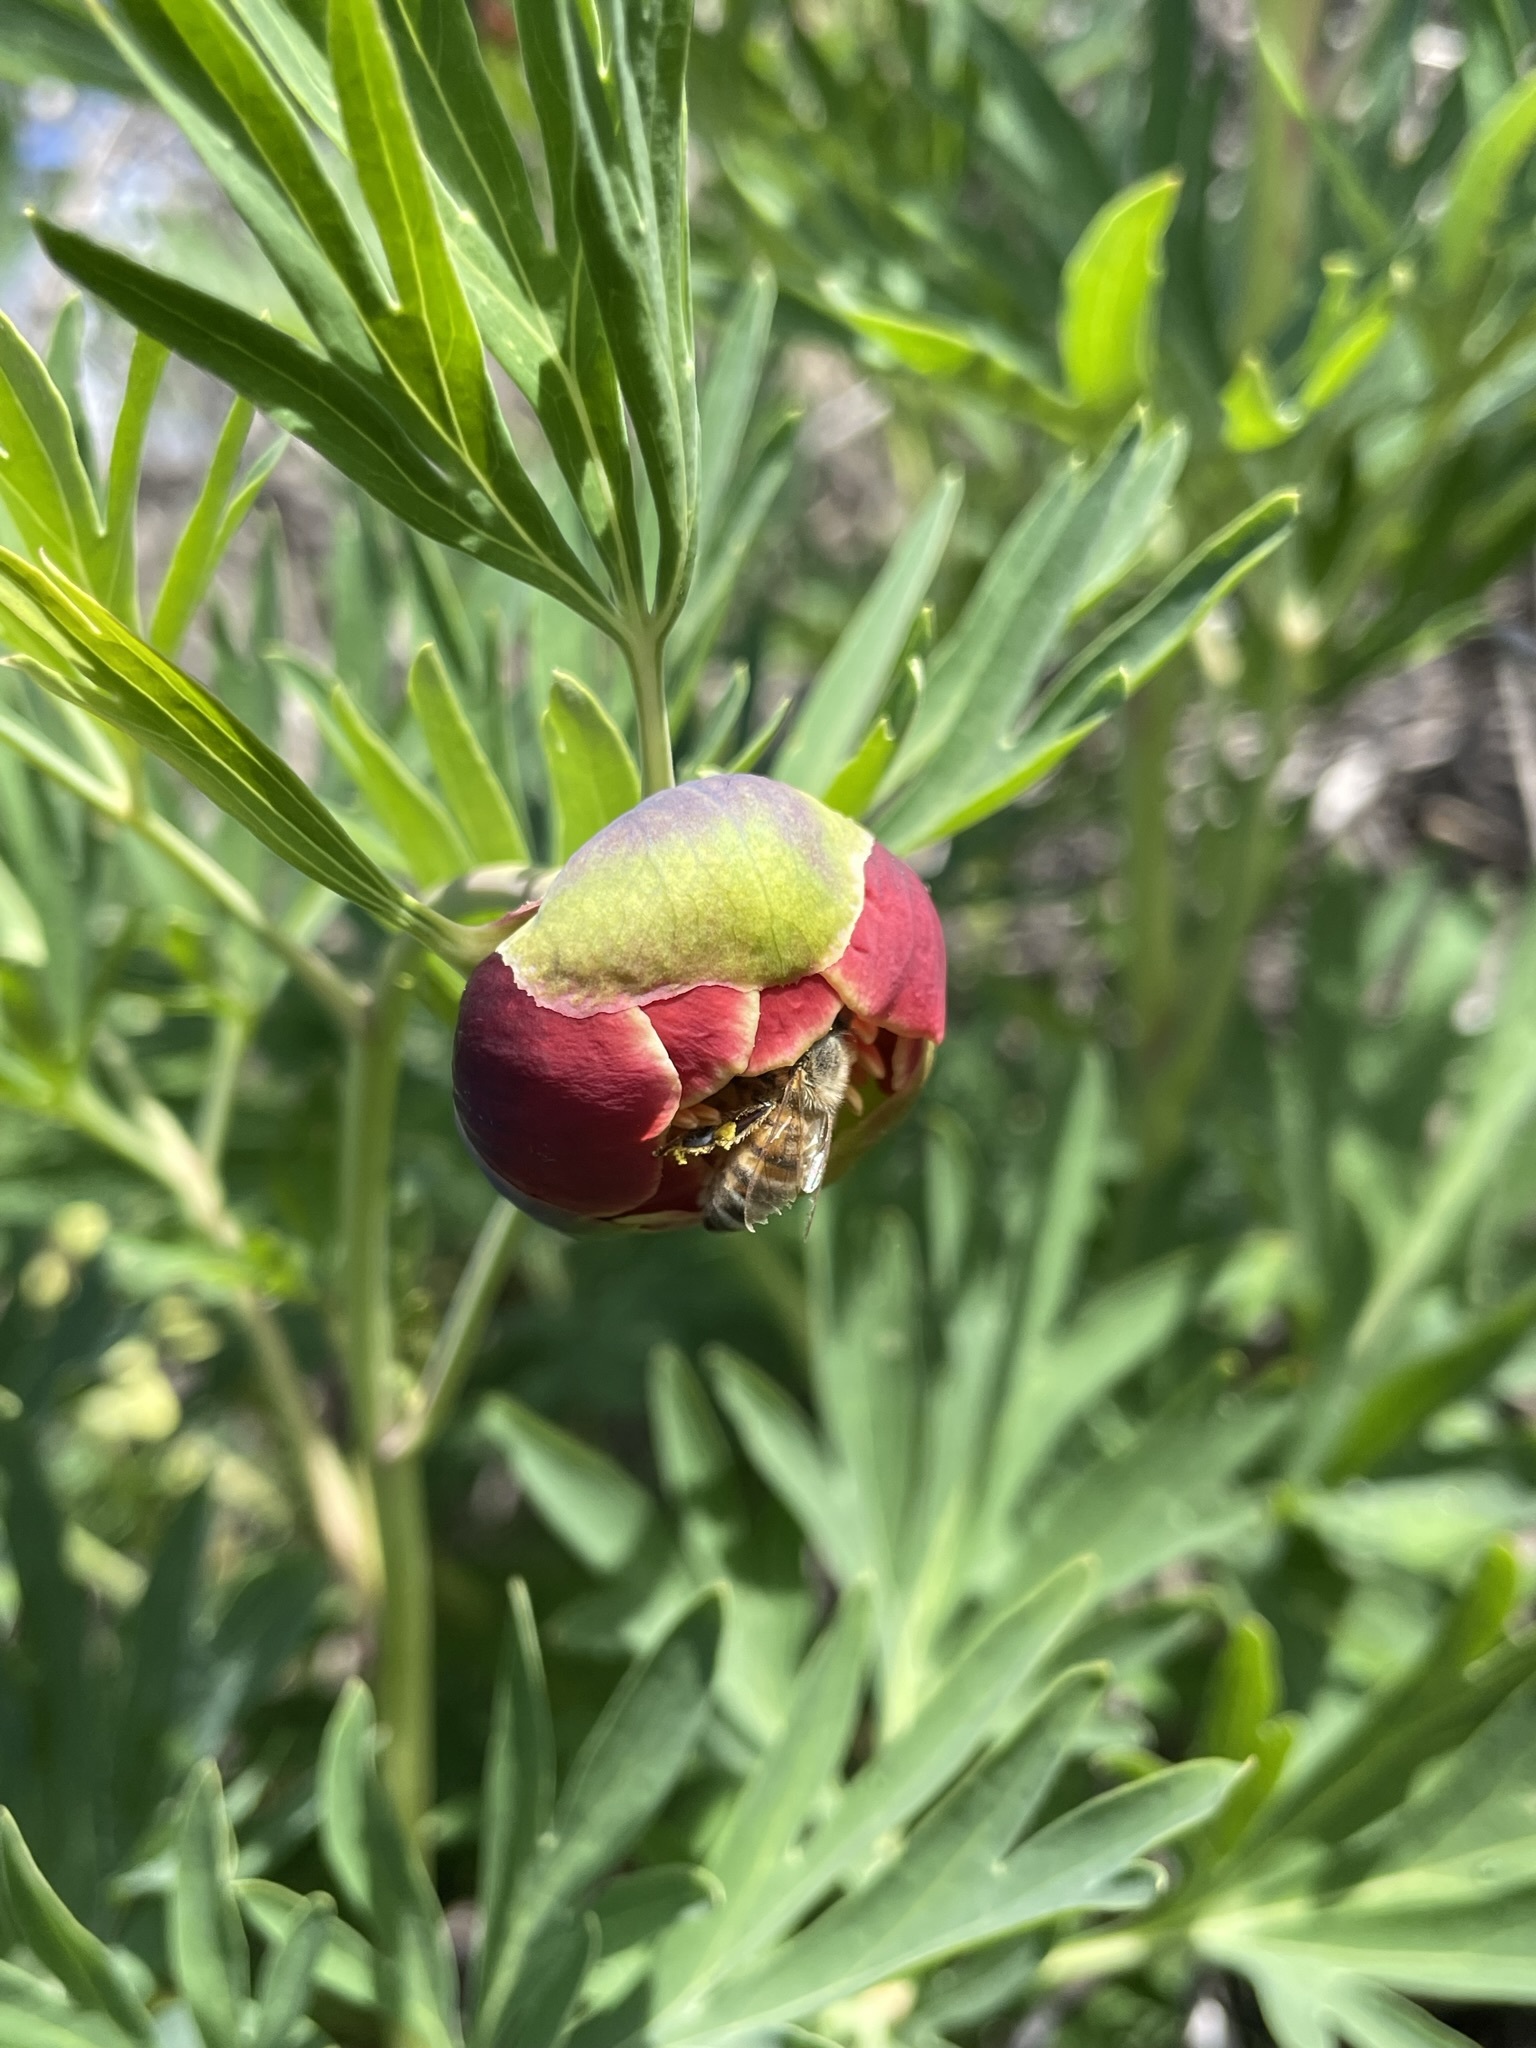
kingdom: Plantae
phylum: Tracheophyta
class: Magnoliopsida
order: Saxifragales
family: Paeoniaceae
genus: Paeonia
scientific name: Paeonia californica
